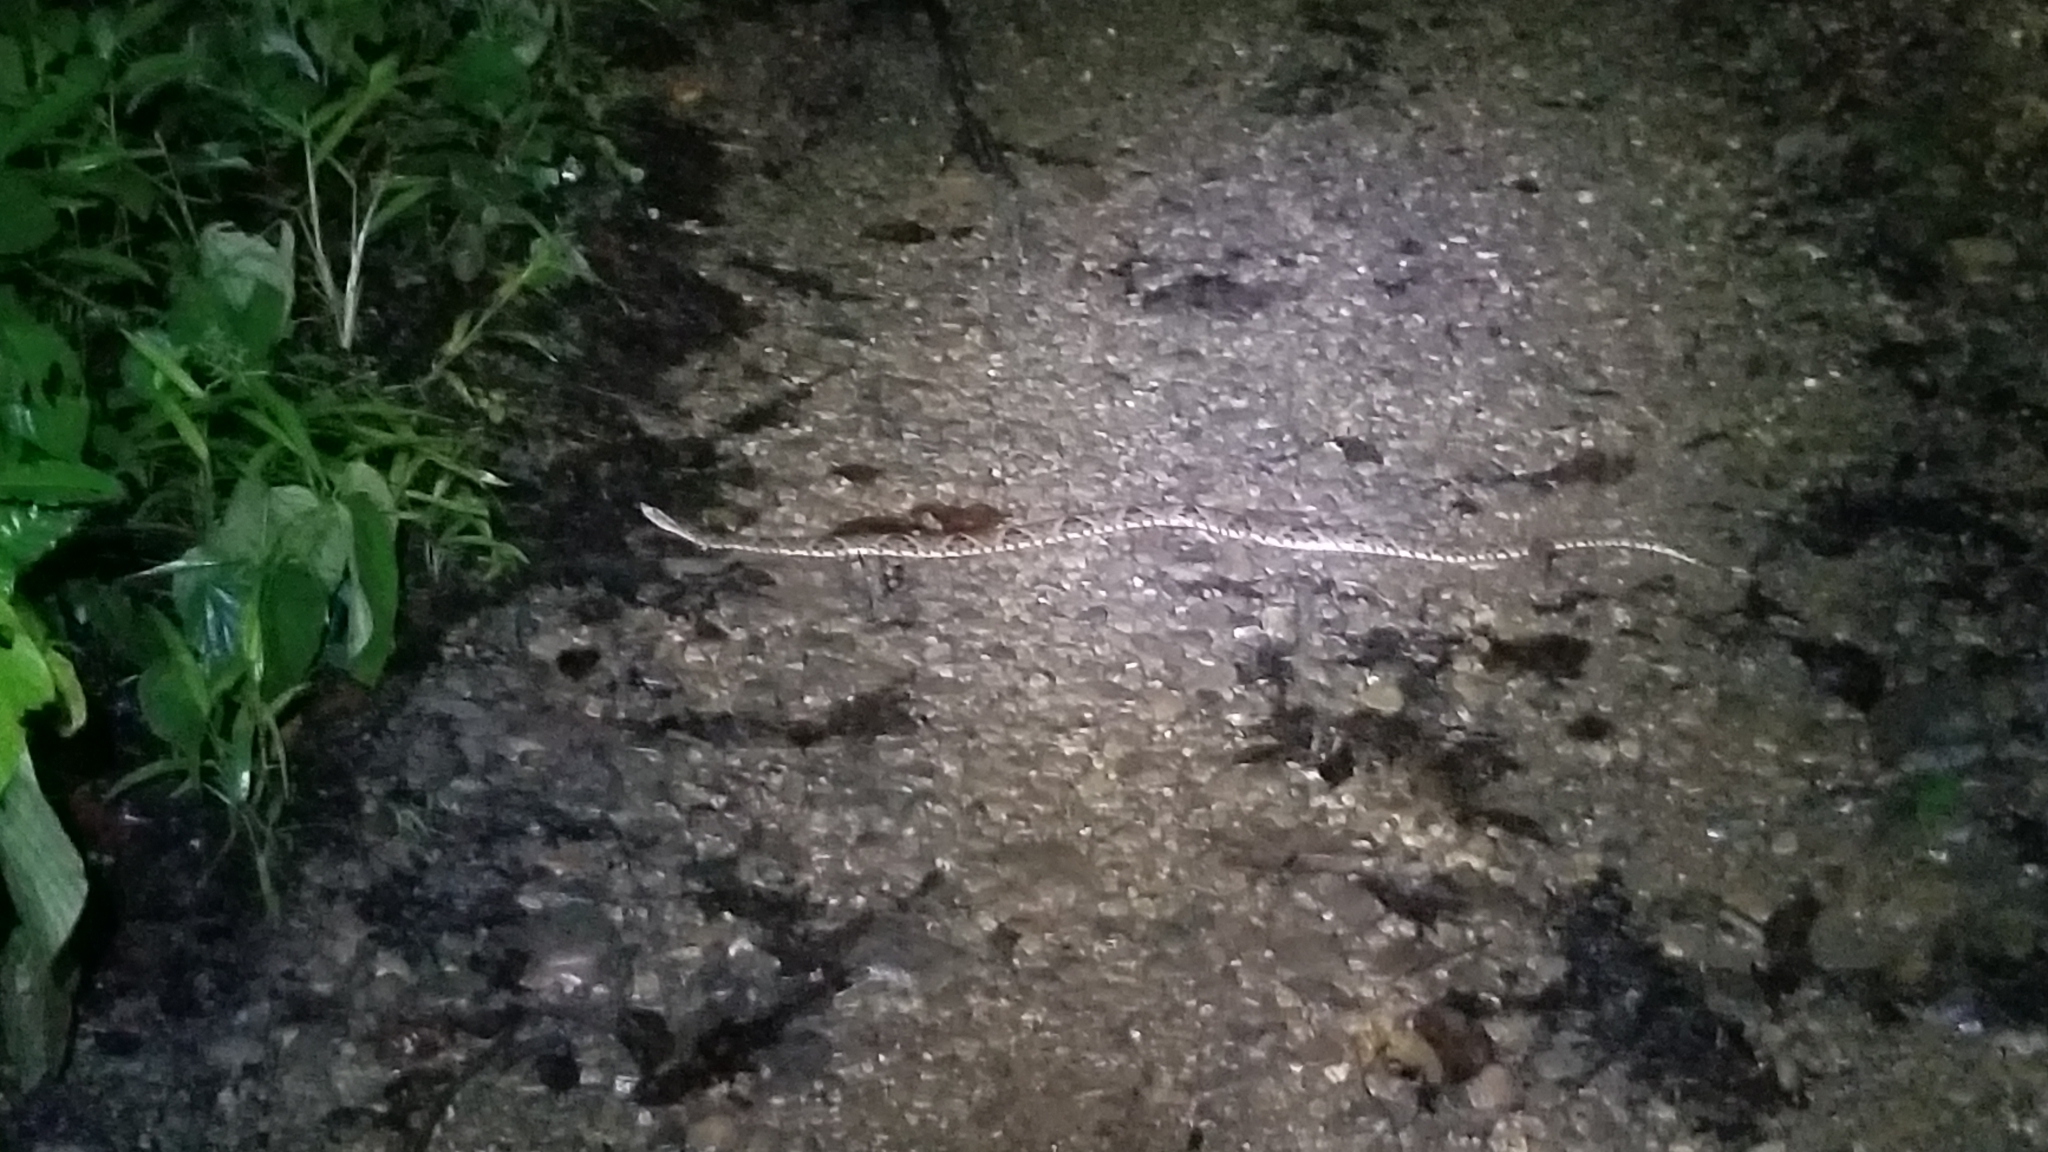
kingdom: Animalia
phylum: Chordata
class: Squamata
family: Viperidae
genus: Bothrops
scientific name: Bothrops asper
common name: Terciopelo
